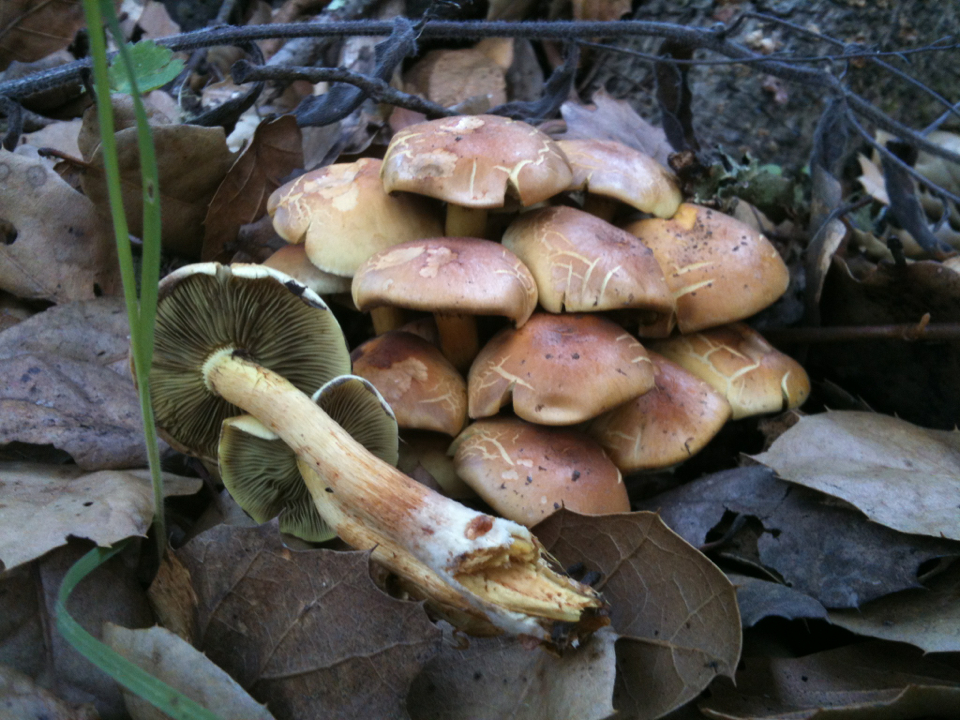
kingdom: Fungi
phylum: Basidiomycota
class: Agaricomycetes
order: Agaricales
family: Strophariaceae
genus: Hypholoma
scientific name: Hypholoma fasciculare
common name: Sulphur tuft
